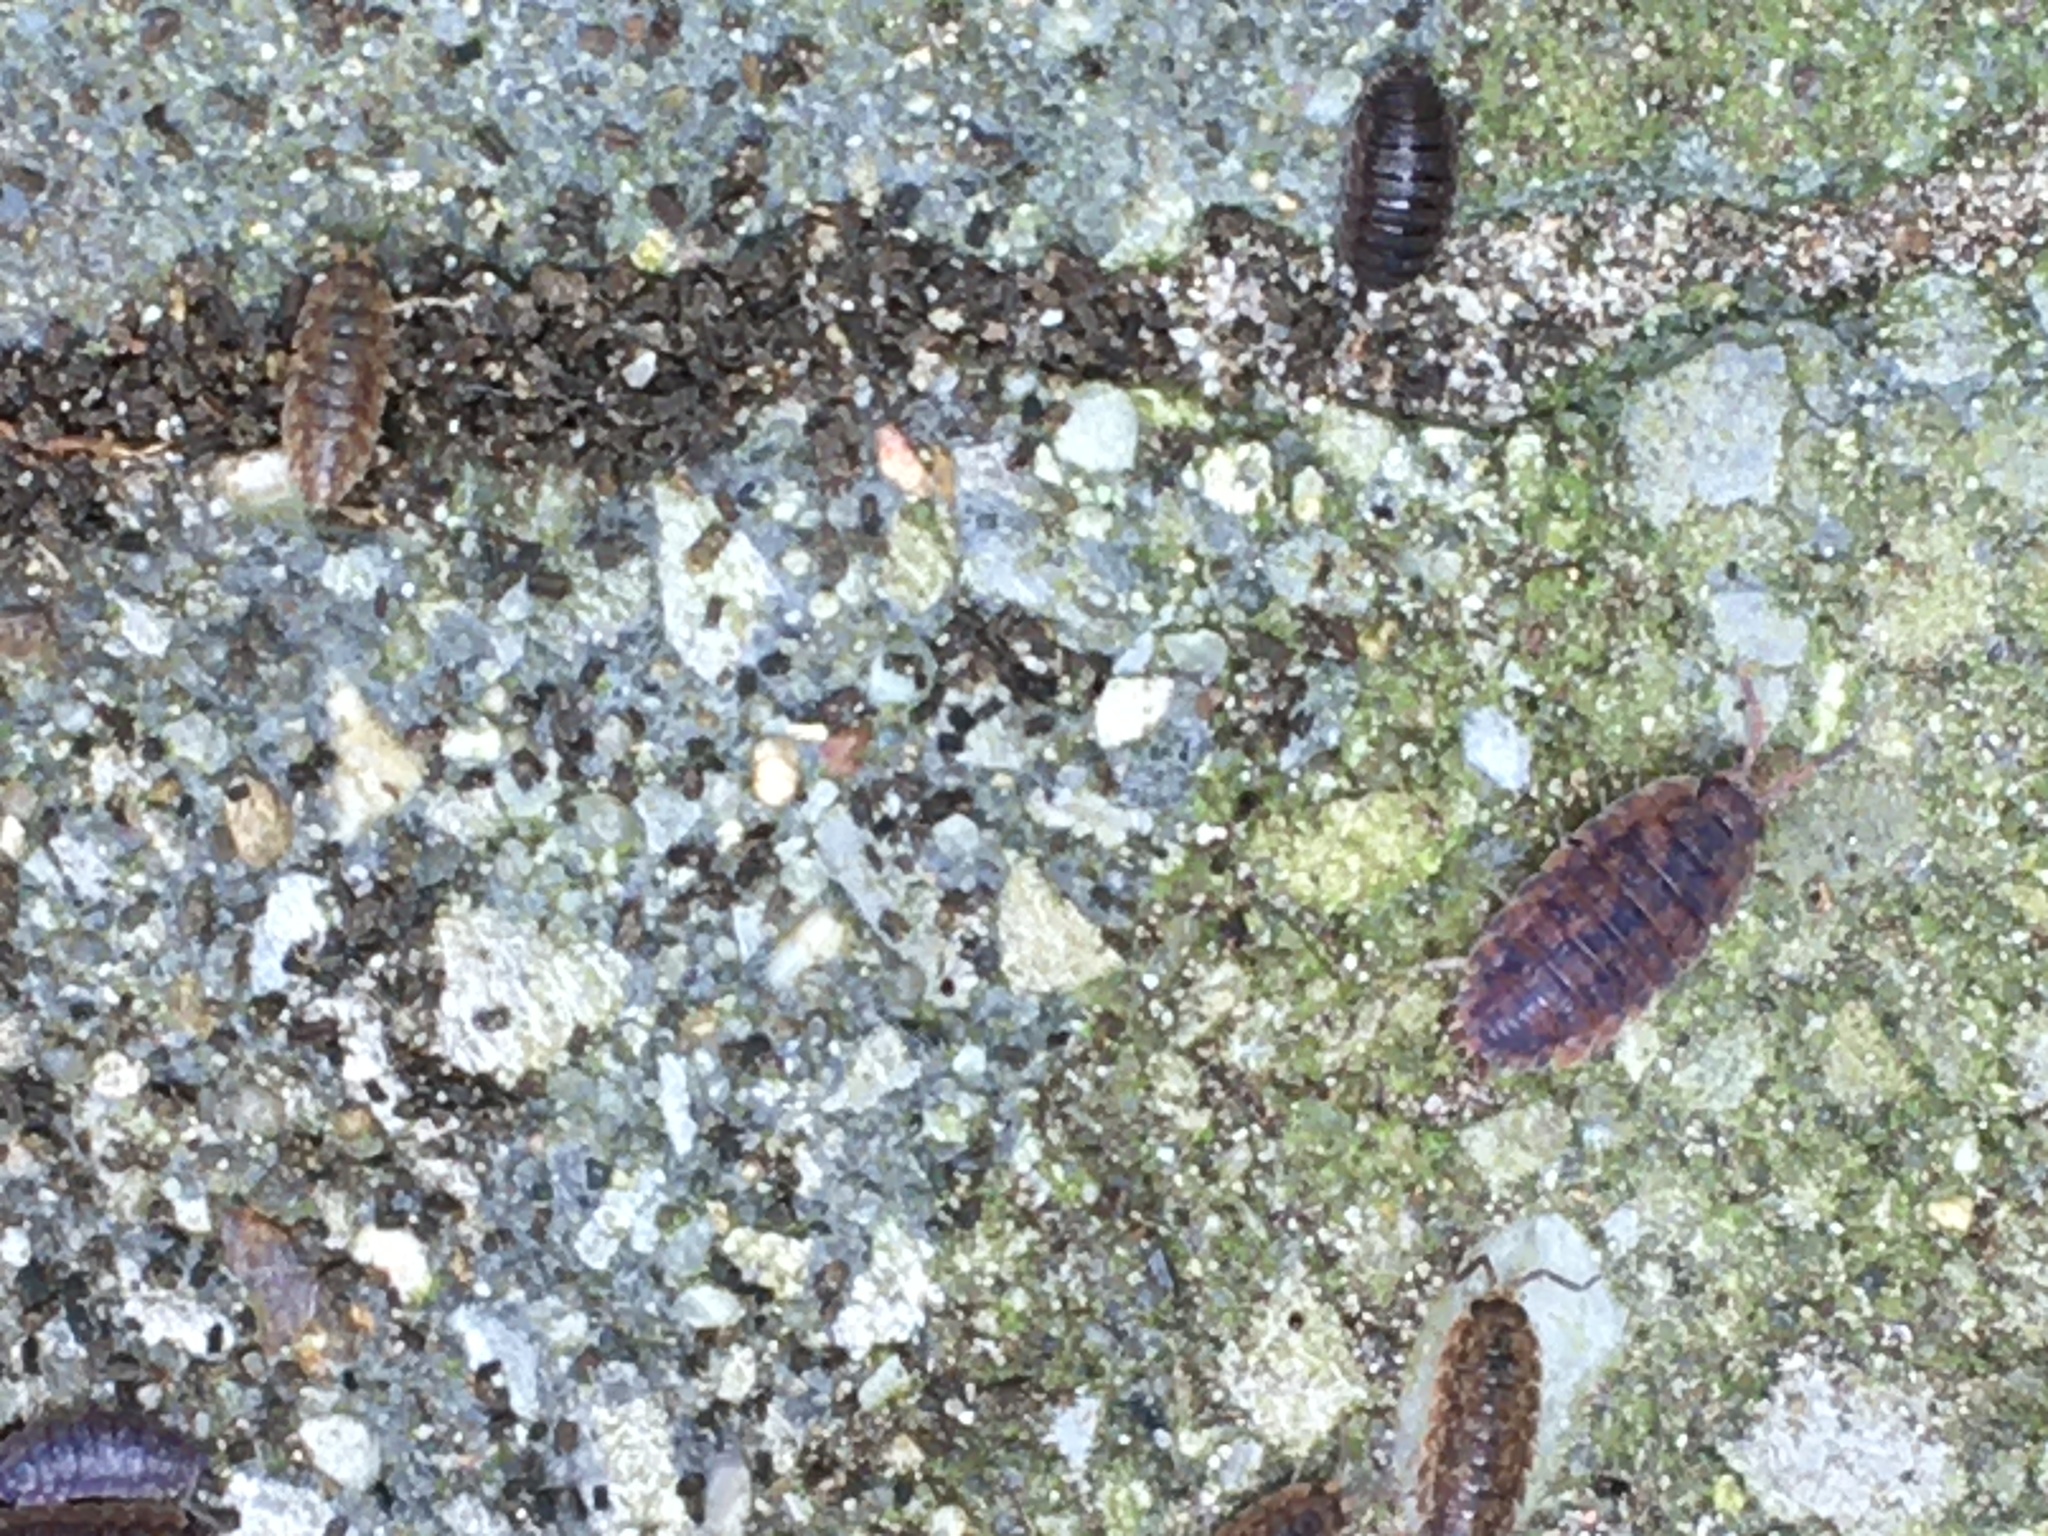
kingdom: Animalia
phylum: Arthropoda
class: Malacostraca
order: Isopoda
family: Porcellionidae
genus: Porcellio
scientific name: Porcellio scaber
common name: Common rough woodlouse
